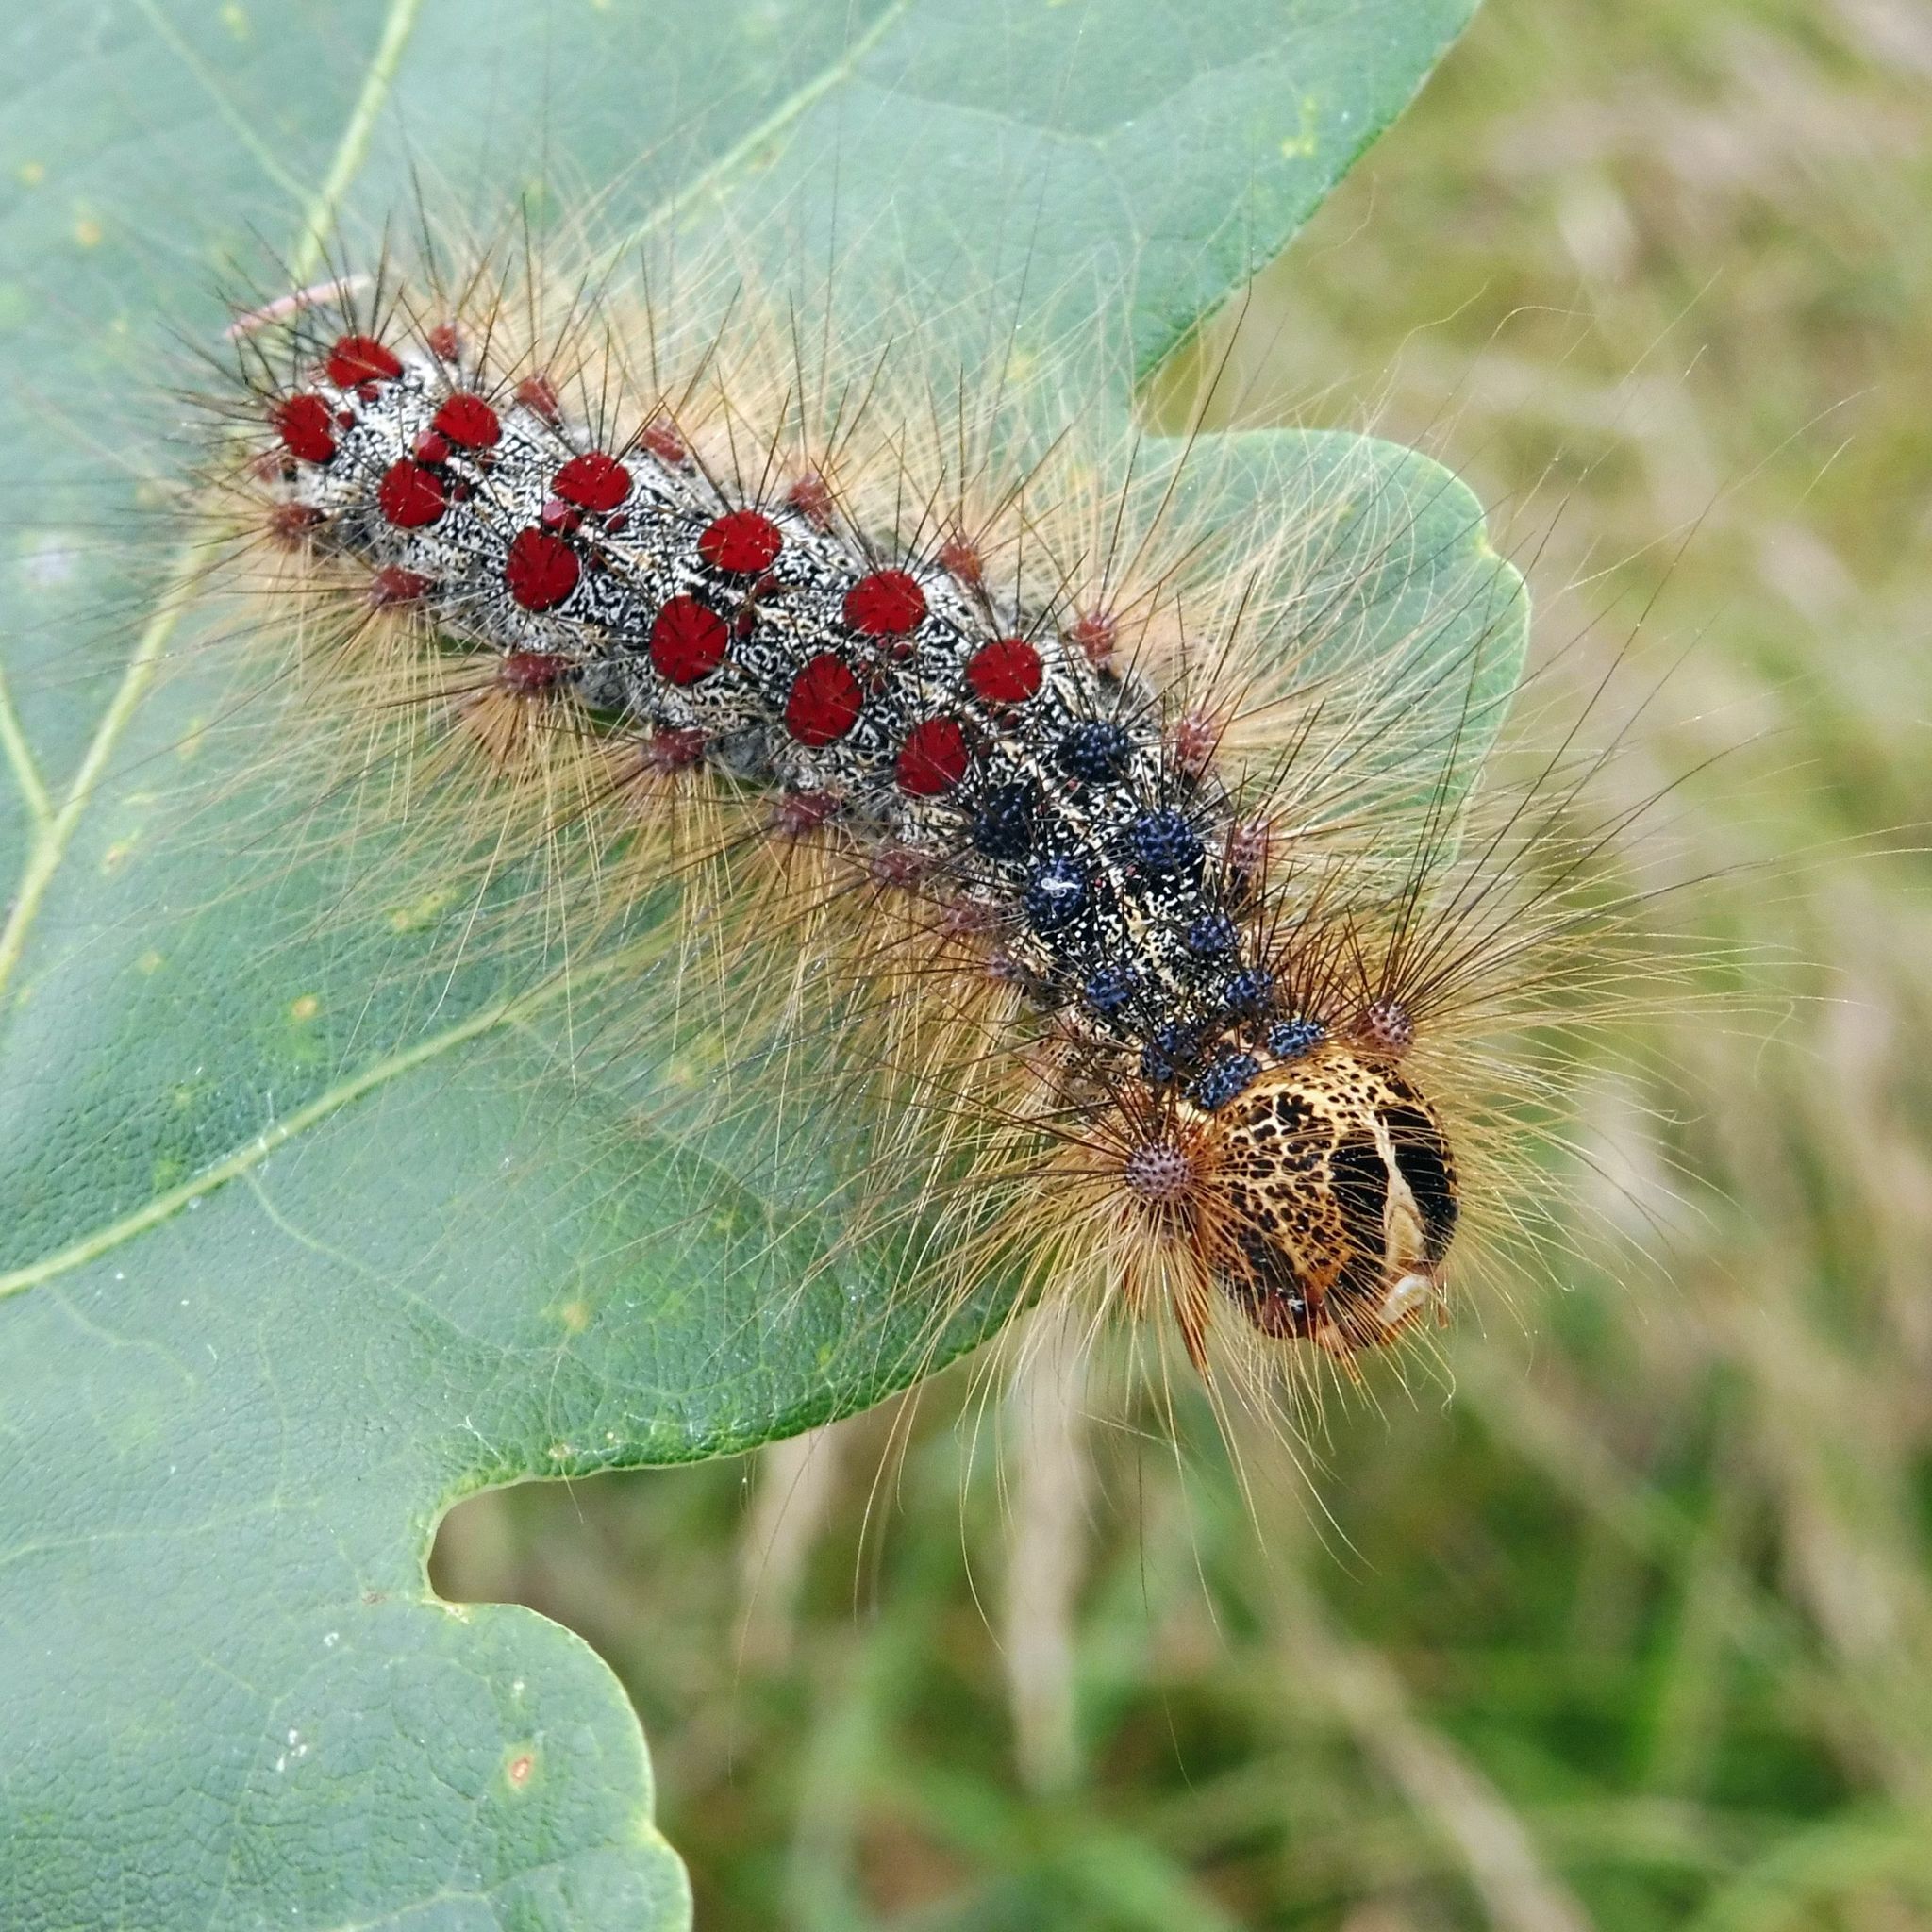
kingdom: Animalia
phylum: Arthropoda
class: Insecta
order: Lepidoptera
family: Erebidae
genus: Lymantria
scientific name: Lymantria dispar
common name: Gypsy moth
